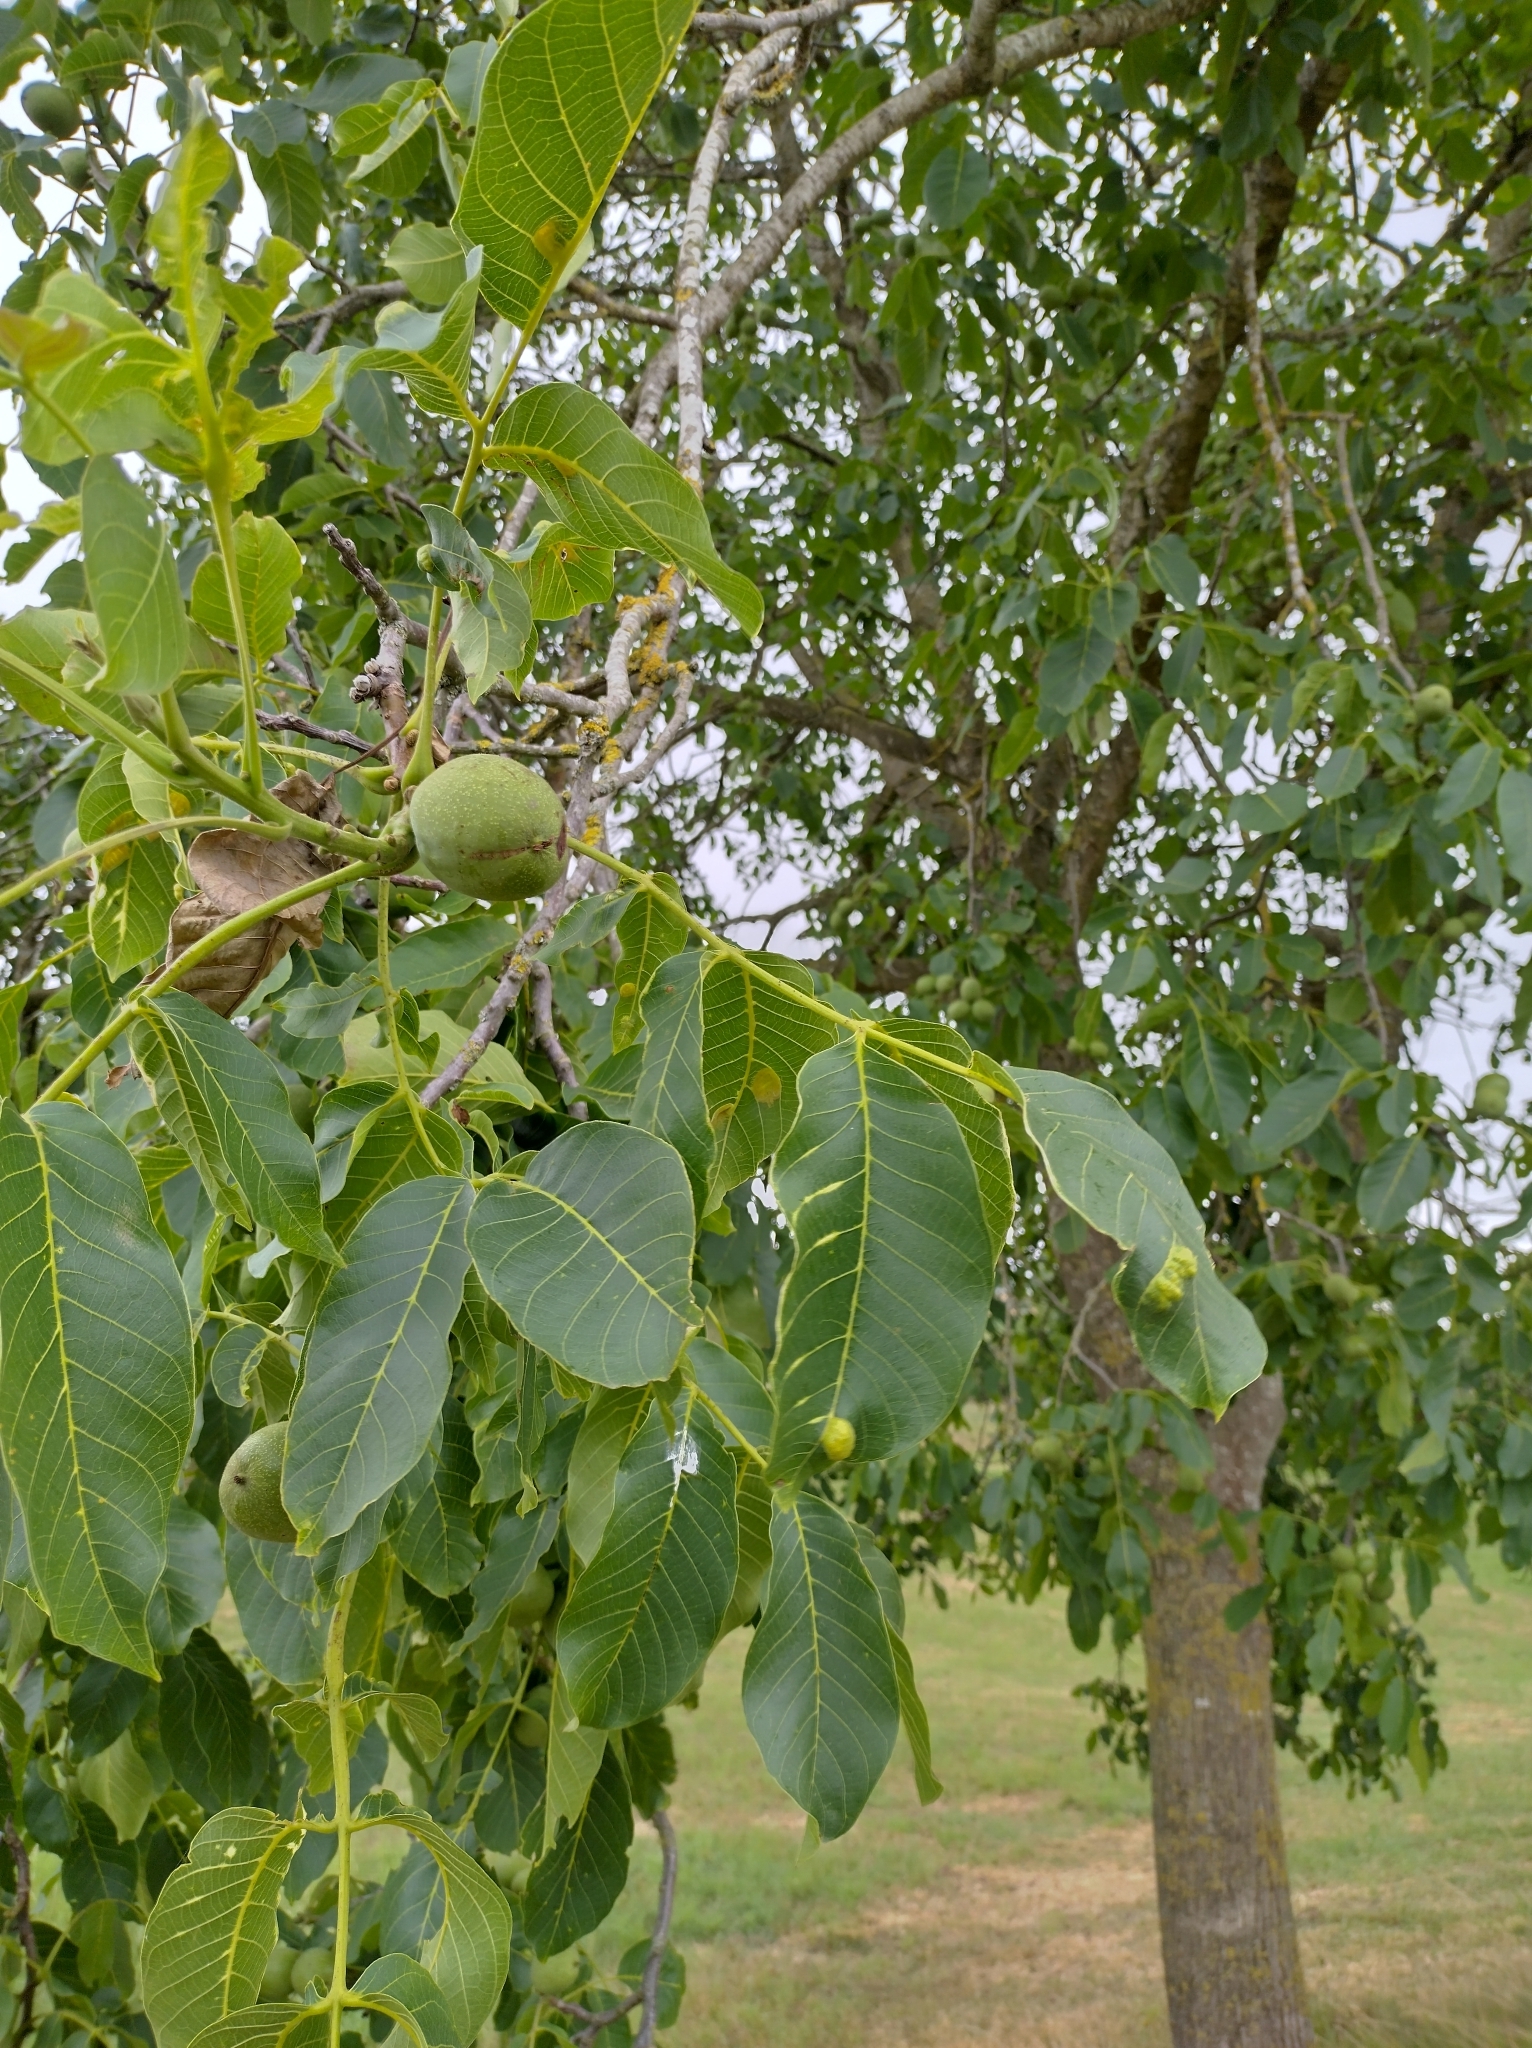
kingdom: Plantae
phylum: Tracheophyta
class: Magnoliopsida
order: Fagales
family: Juglandaceae
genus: Juglans
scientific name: Juglans regia
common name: Walnut
